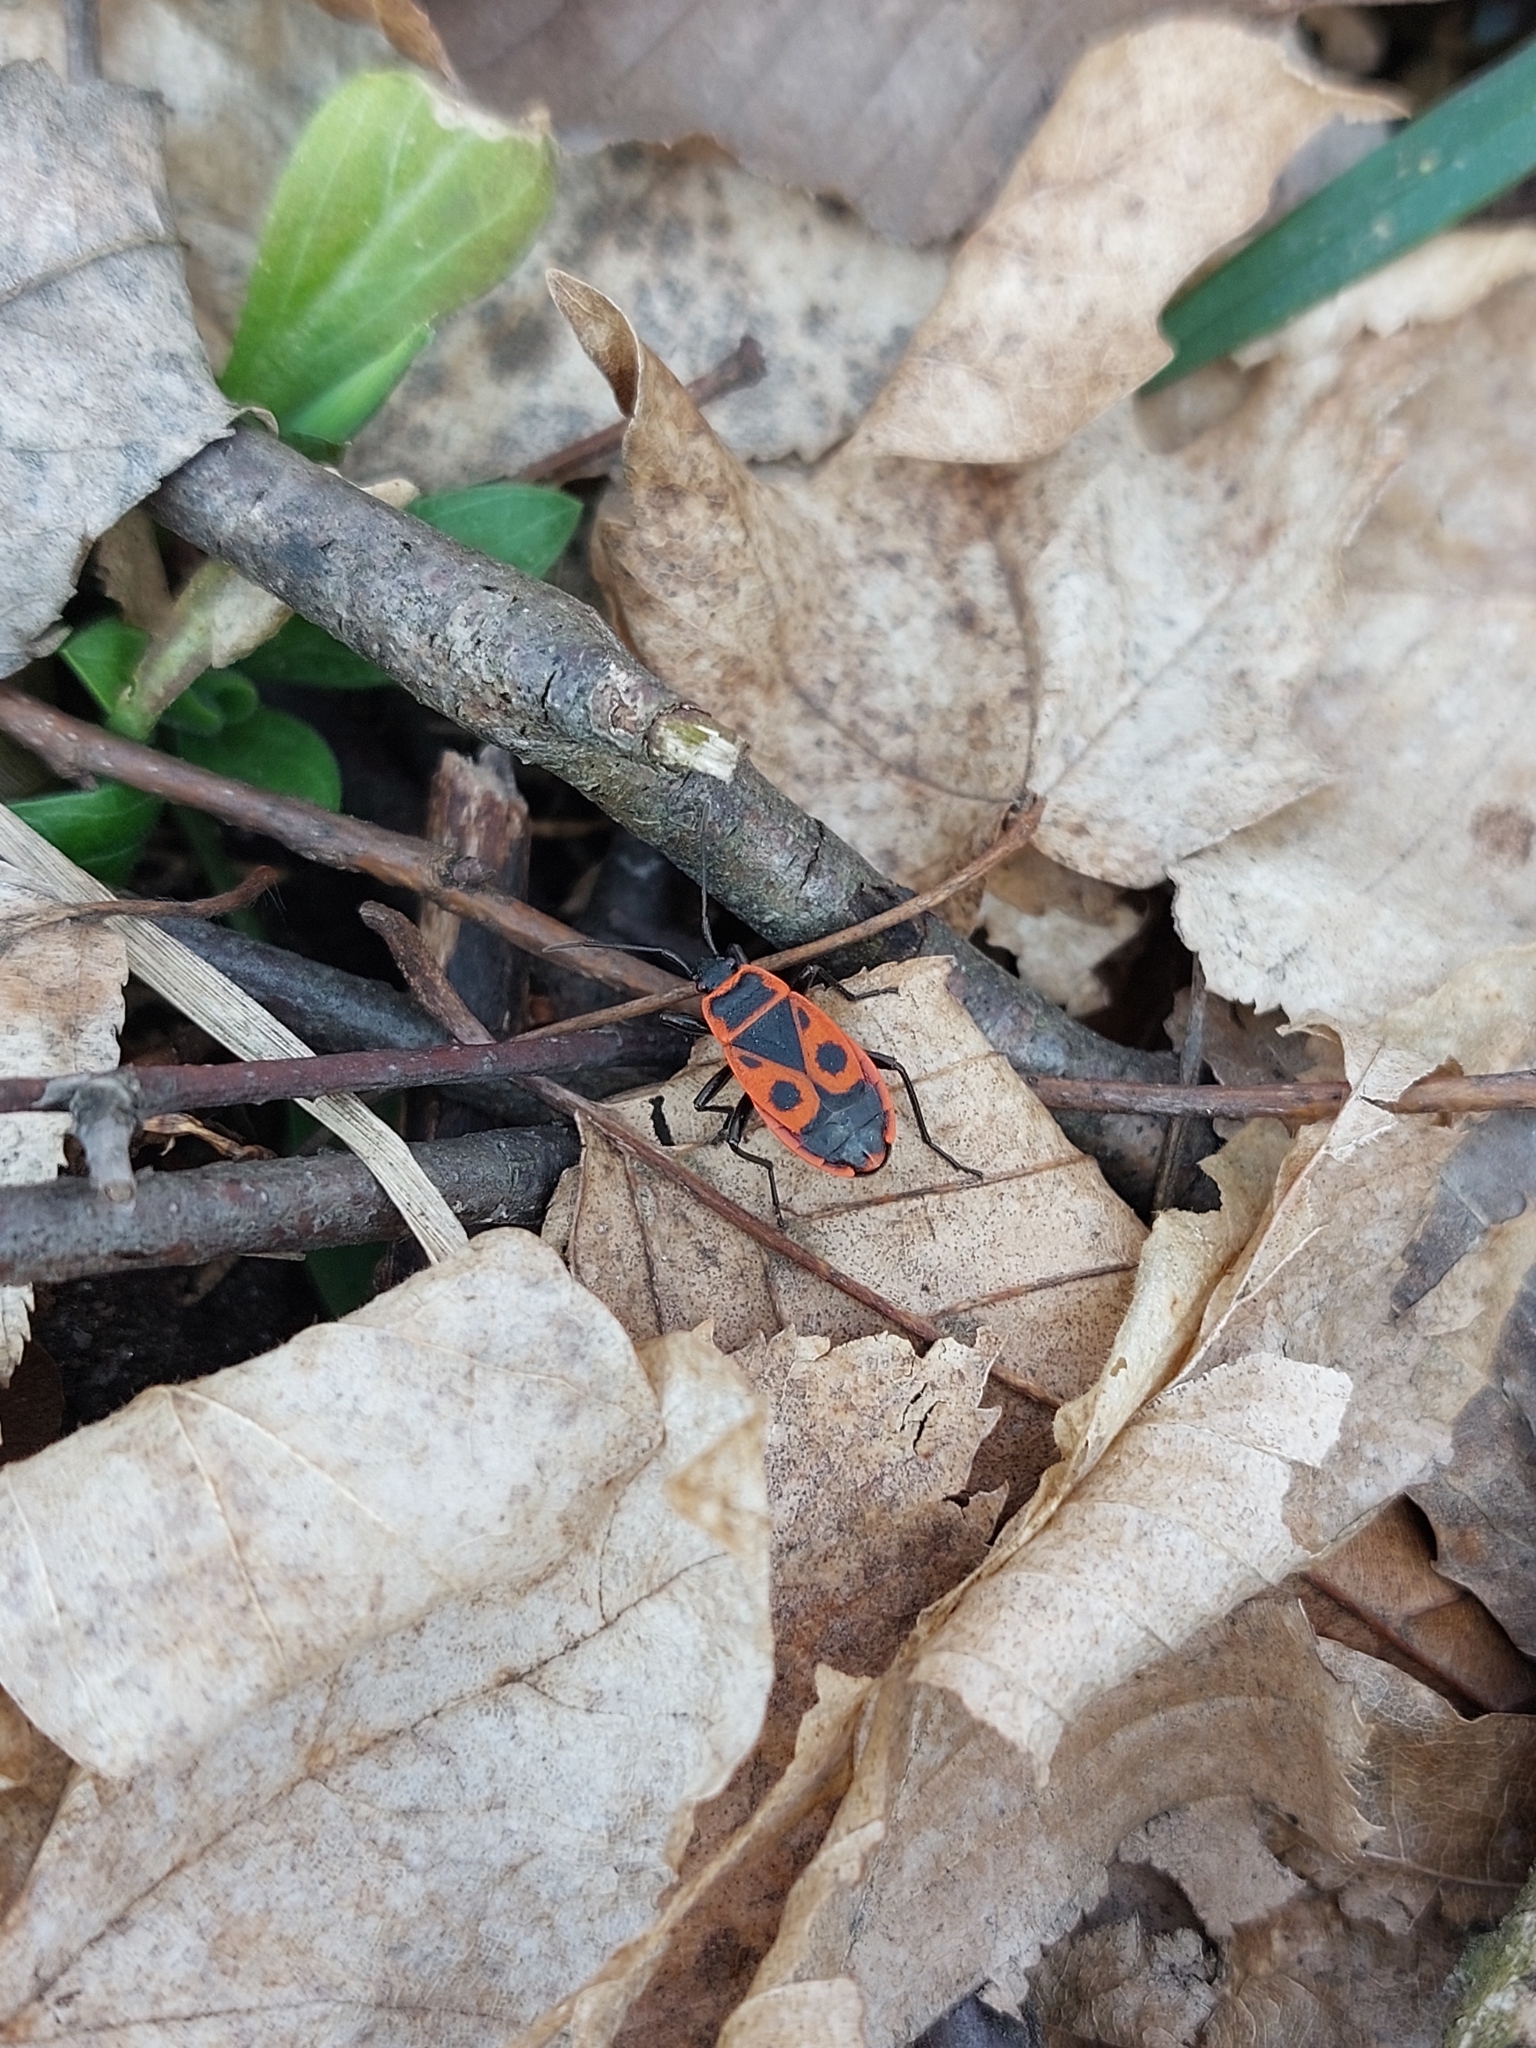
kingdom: Animalia
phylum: Arthropoda
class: Insecta
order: Hemiptera
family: Pyrrhocoridae
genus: Pyrrhocoris
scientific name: Pyrrhocoris apterus
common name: Firebug
